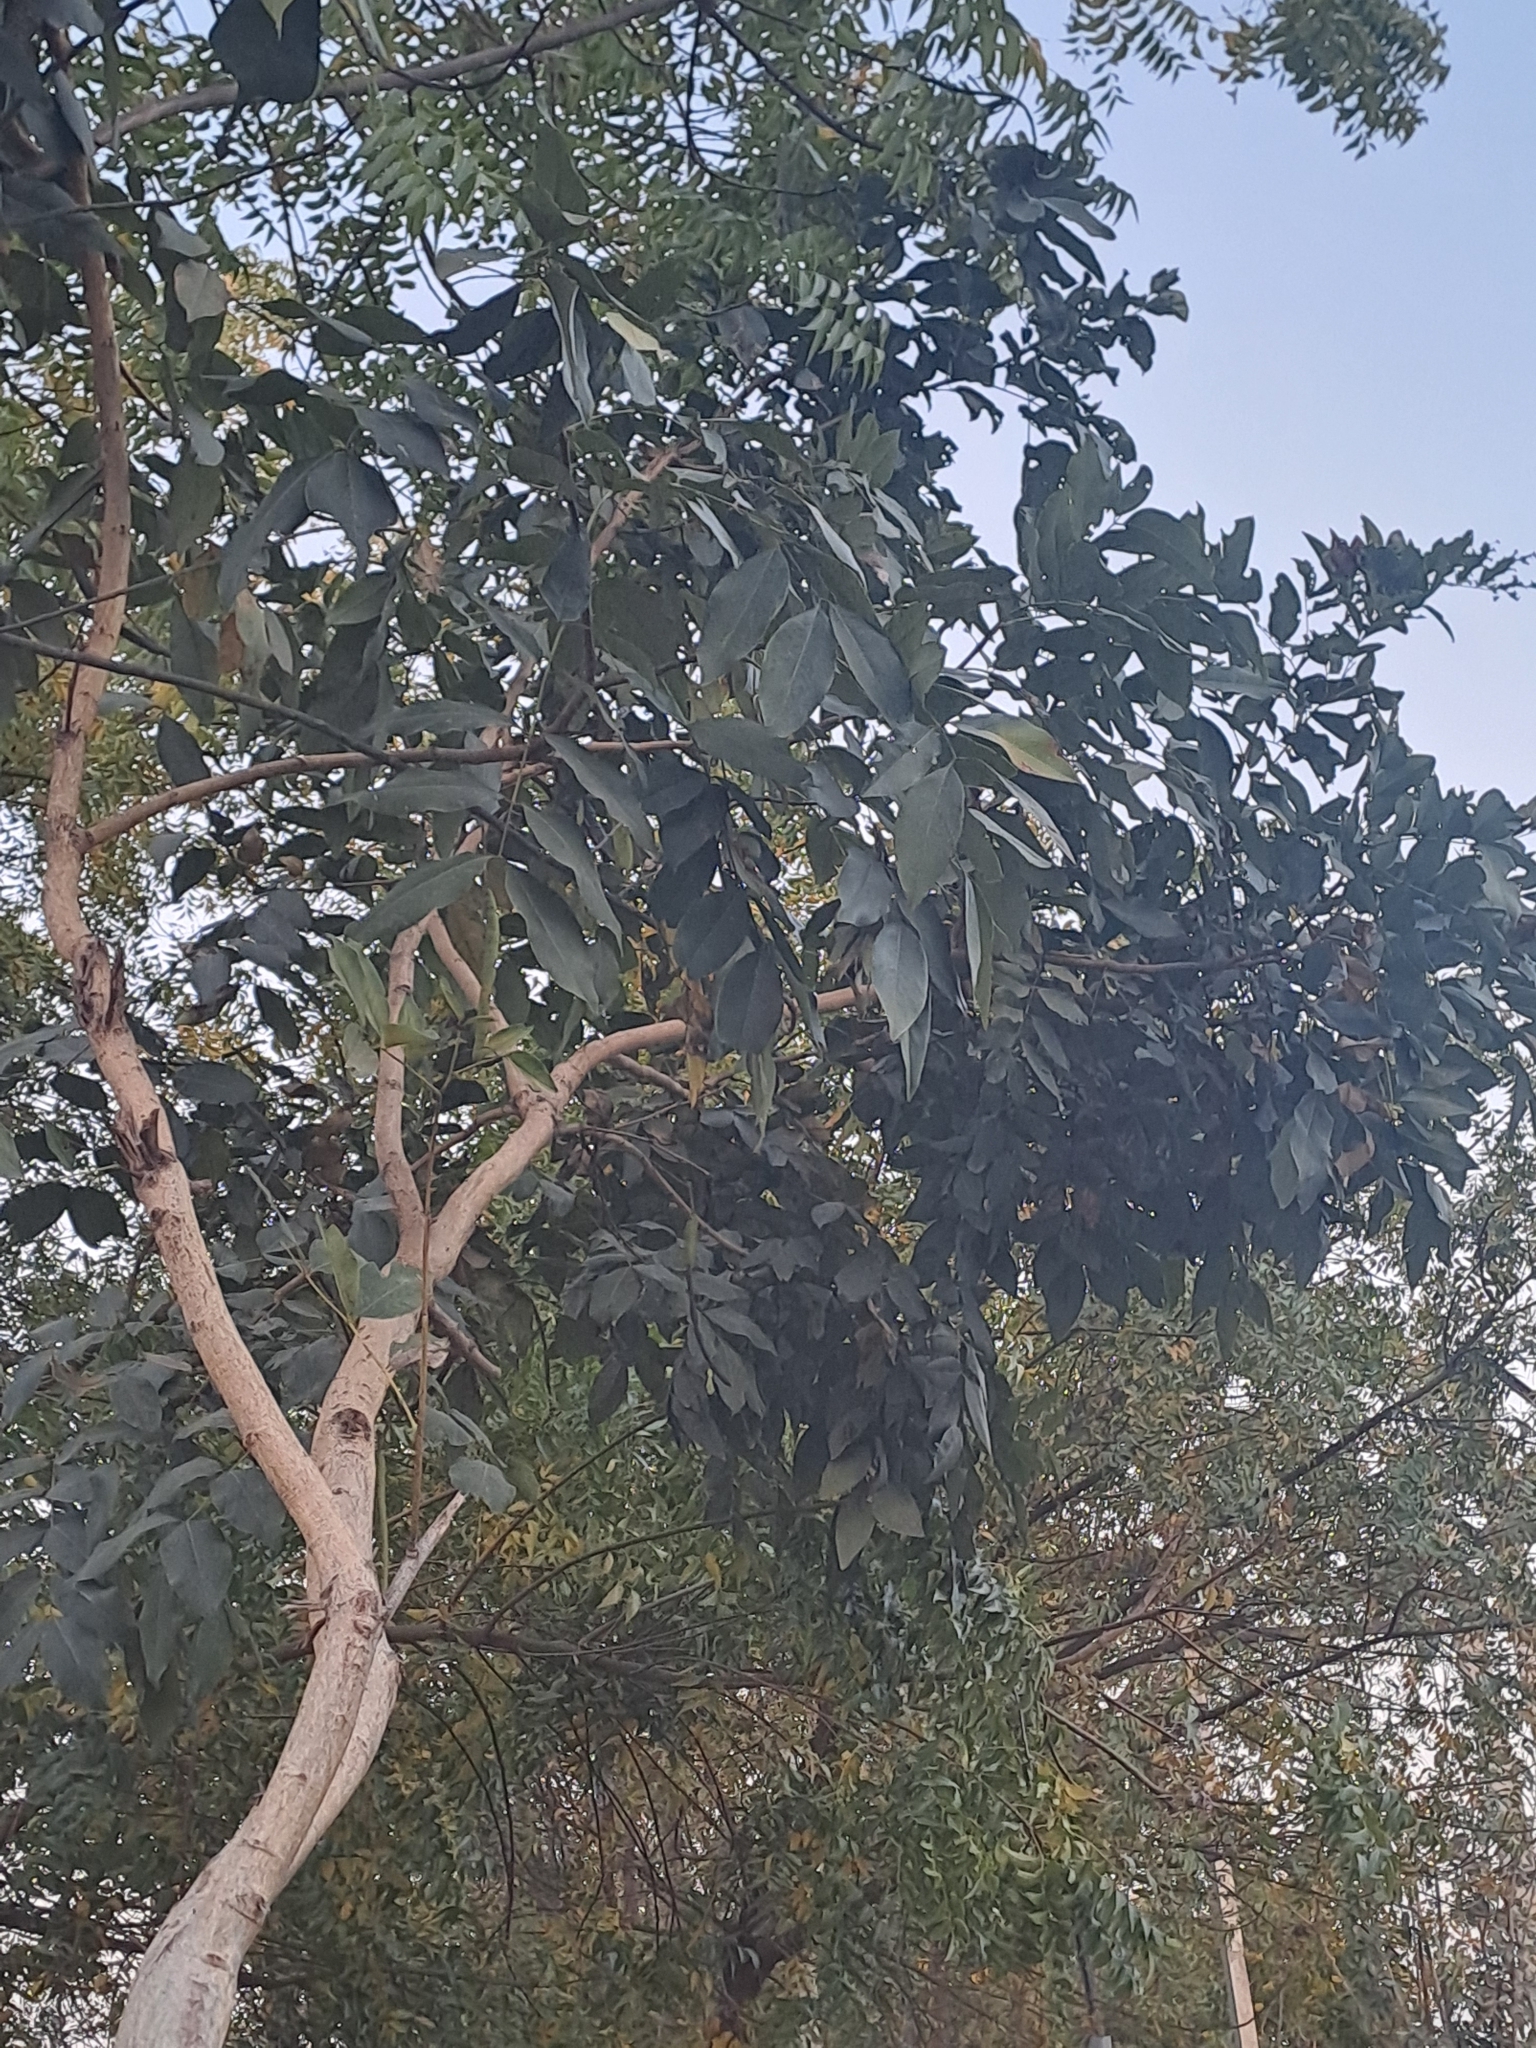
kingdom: Plantae
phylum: Tracheophyta
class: Magnoliopsida
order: Fabales
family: Fabaceae
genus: Cassia
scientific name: Cassia fistula
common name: Golden shower
